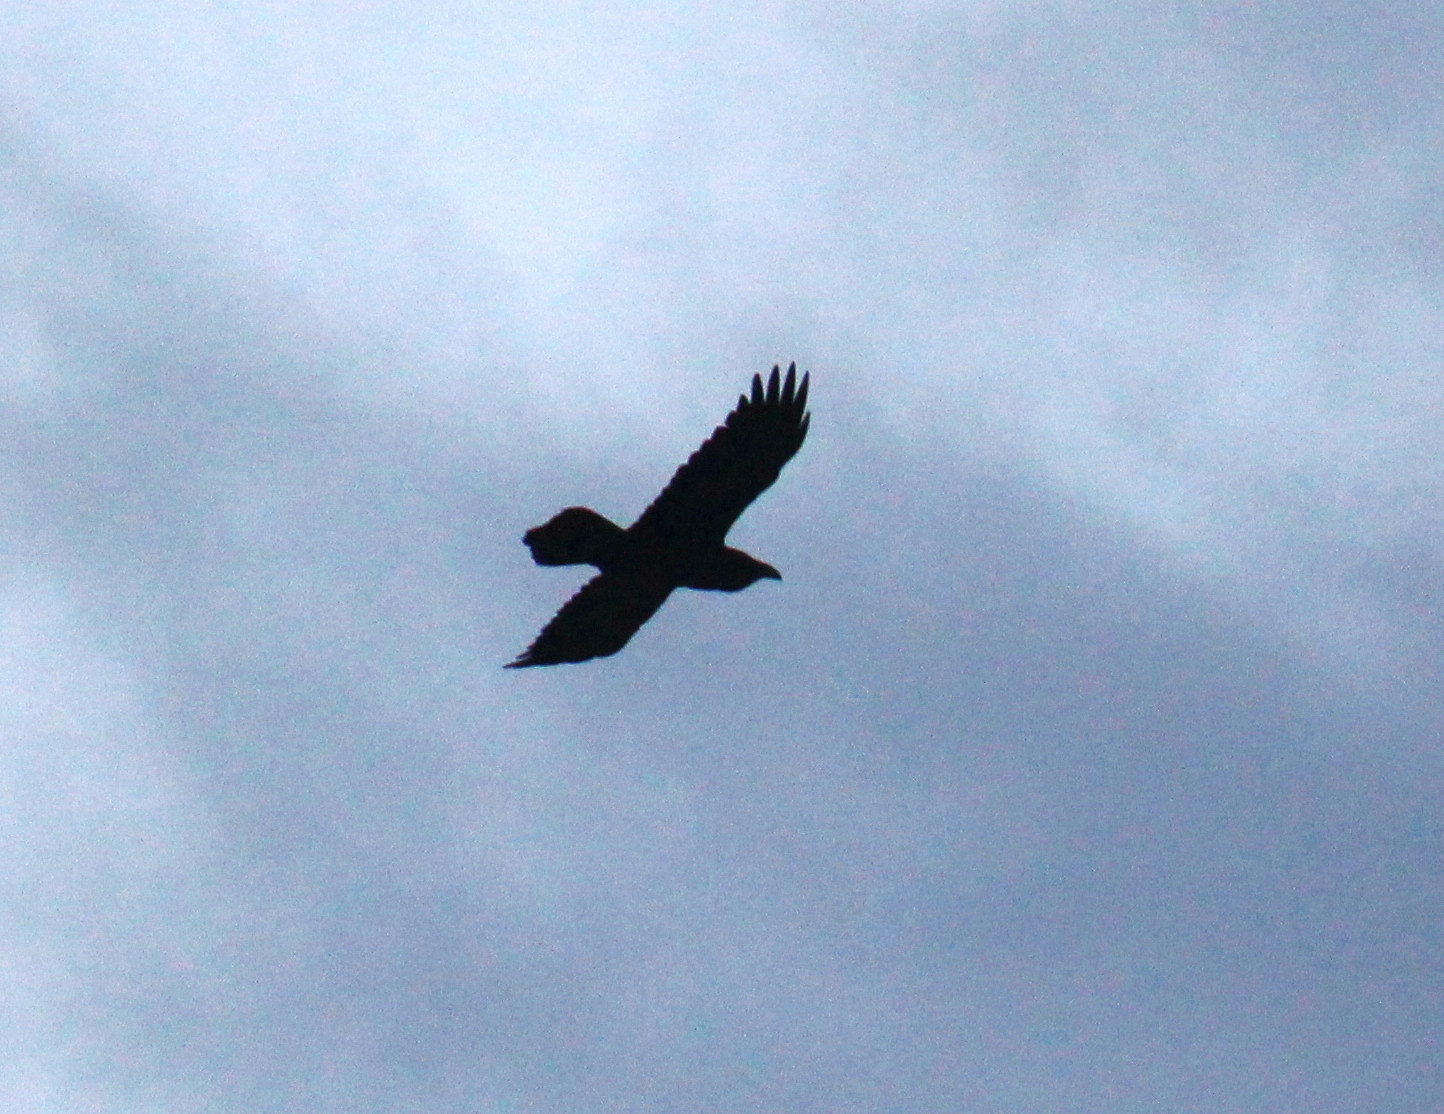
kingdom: Animalia
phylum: Chordata
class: Aves
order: Passeriformes
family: Corvidae
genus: Corvus
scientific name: Corvus corax
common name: Common raven
